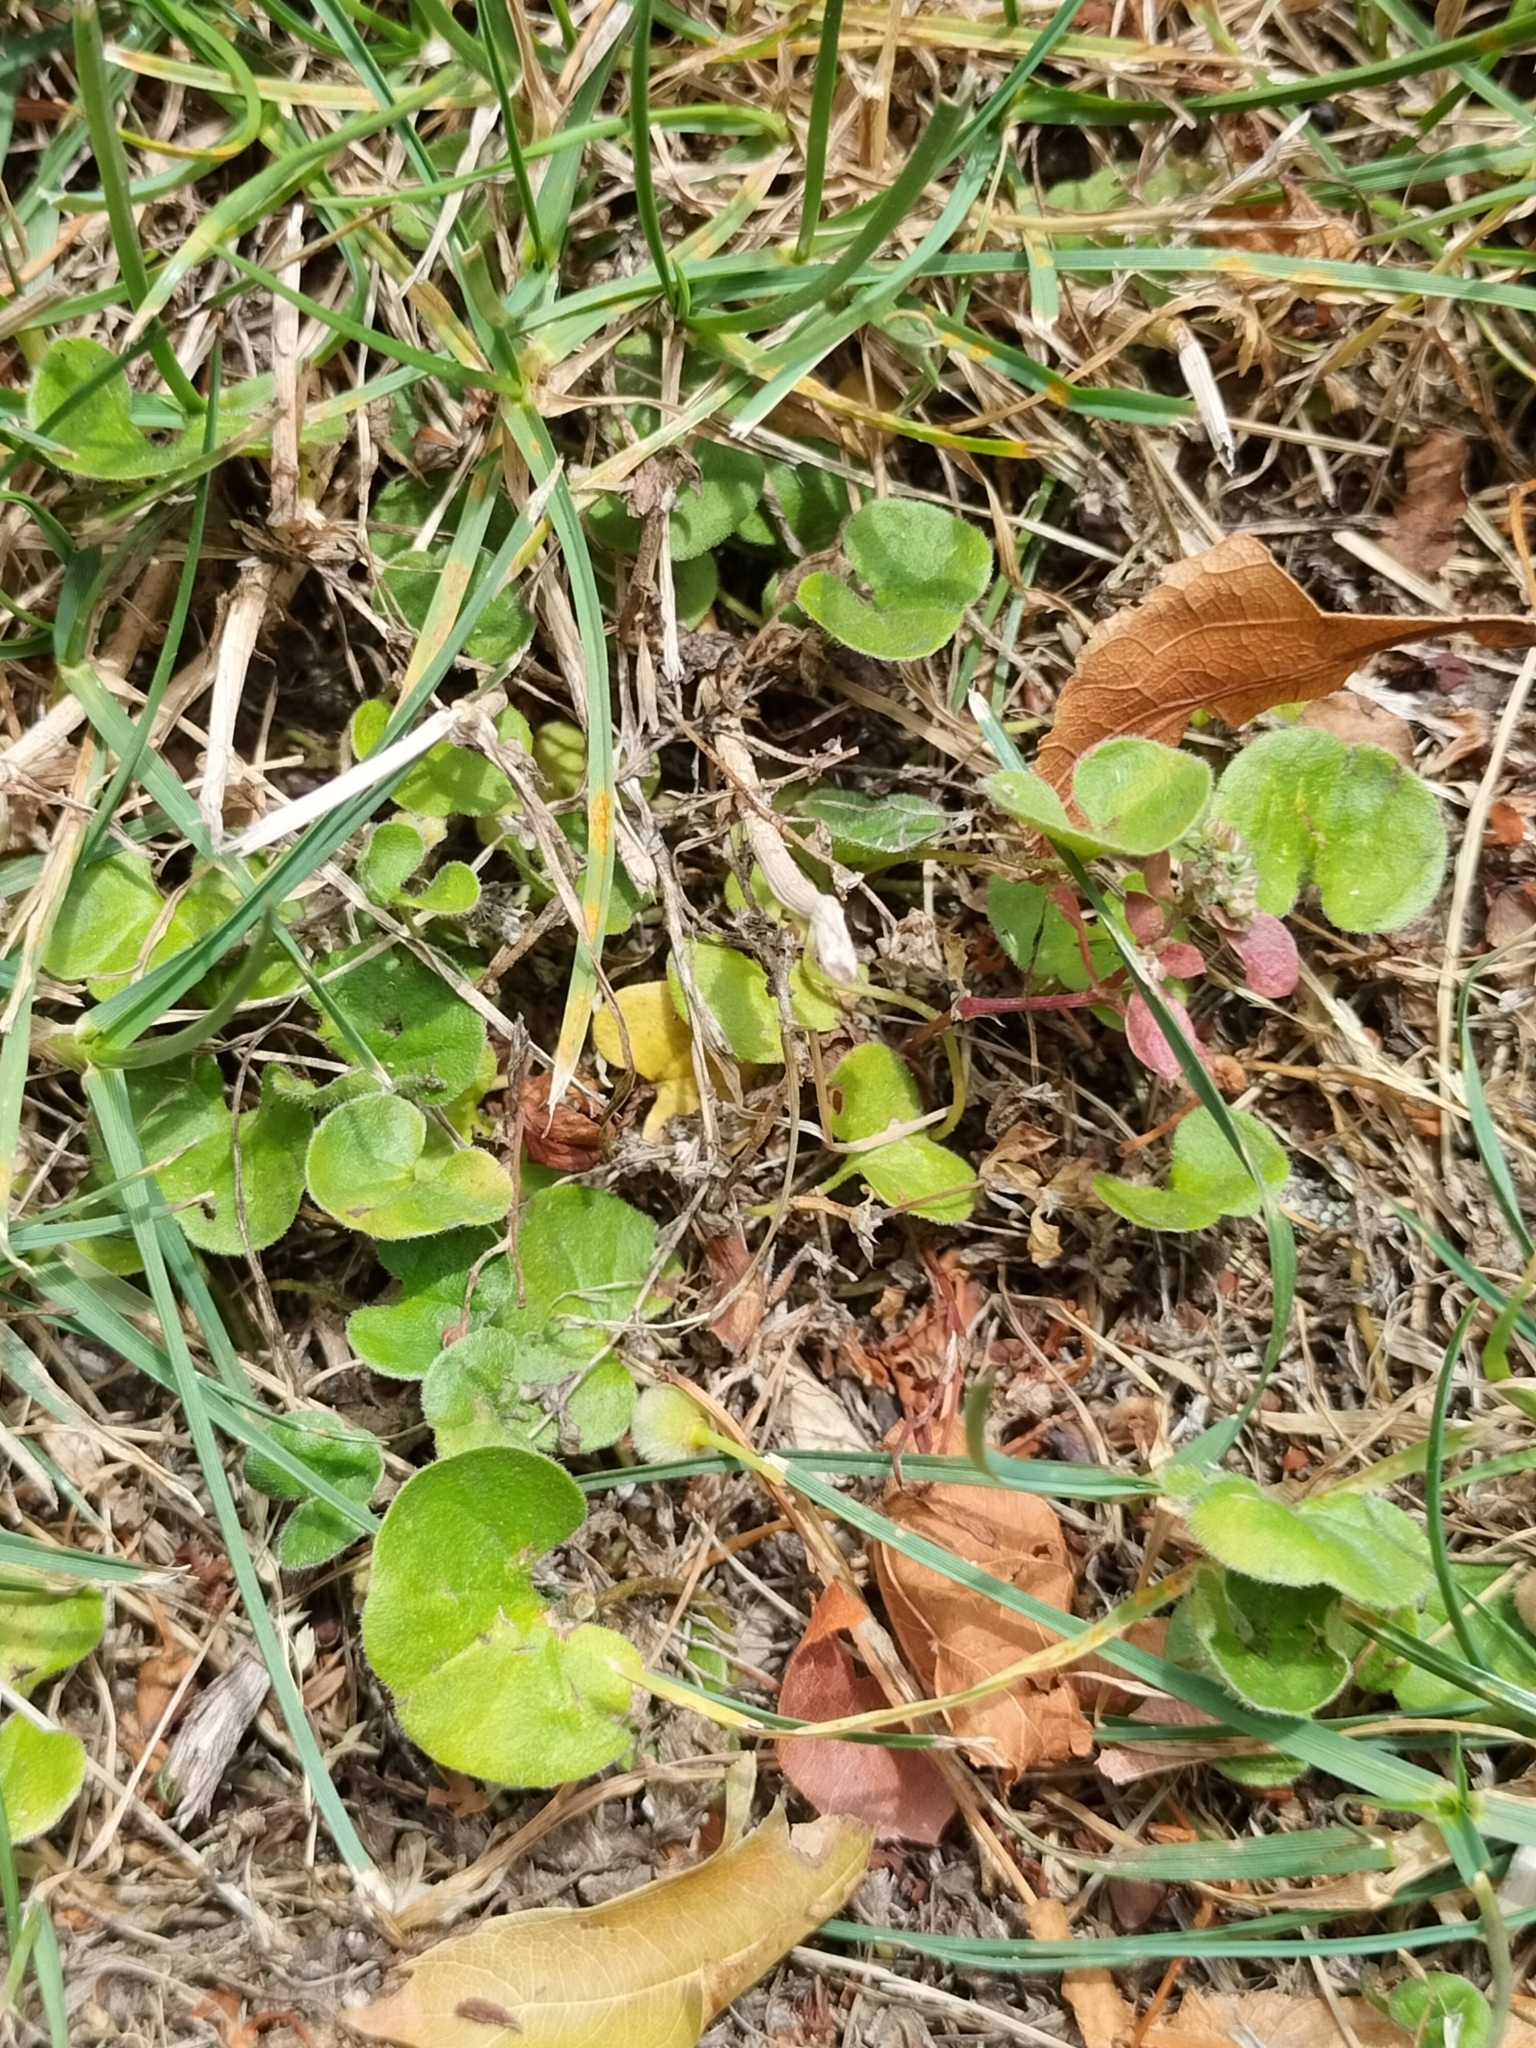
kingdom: Plantae
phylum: Tracheophyta
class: Magnoliopsida
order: Solanales
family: Convolvulaceae
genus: Dichondra
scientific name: Dichondra repens
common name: Kidneyweed
